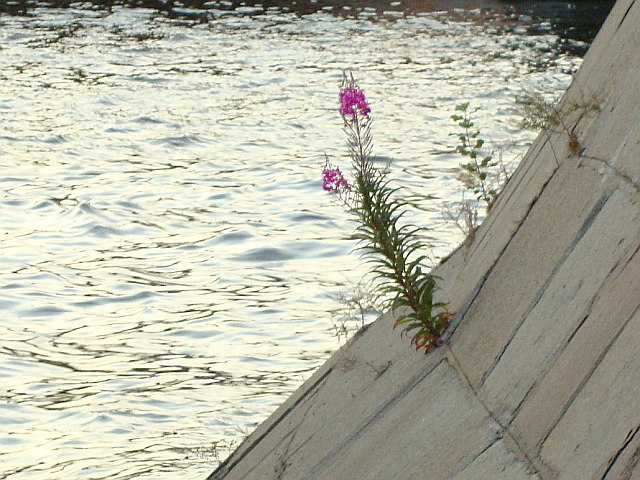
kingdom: Plantae
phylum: Tracheophyta
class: Magnoliopsida
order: Myrtales
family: Onagraceae
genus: Chamaenerion
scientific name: Chamaenerion angustifolium
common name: Fireweed
